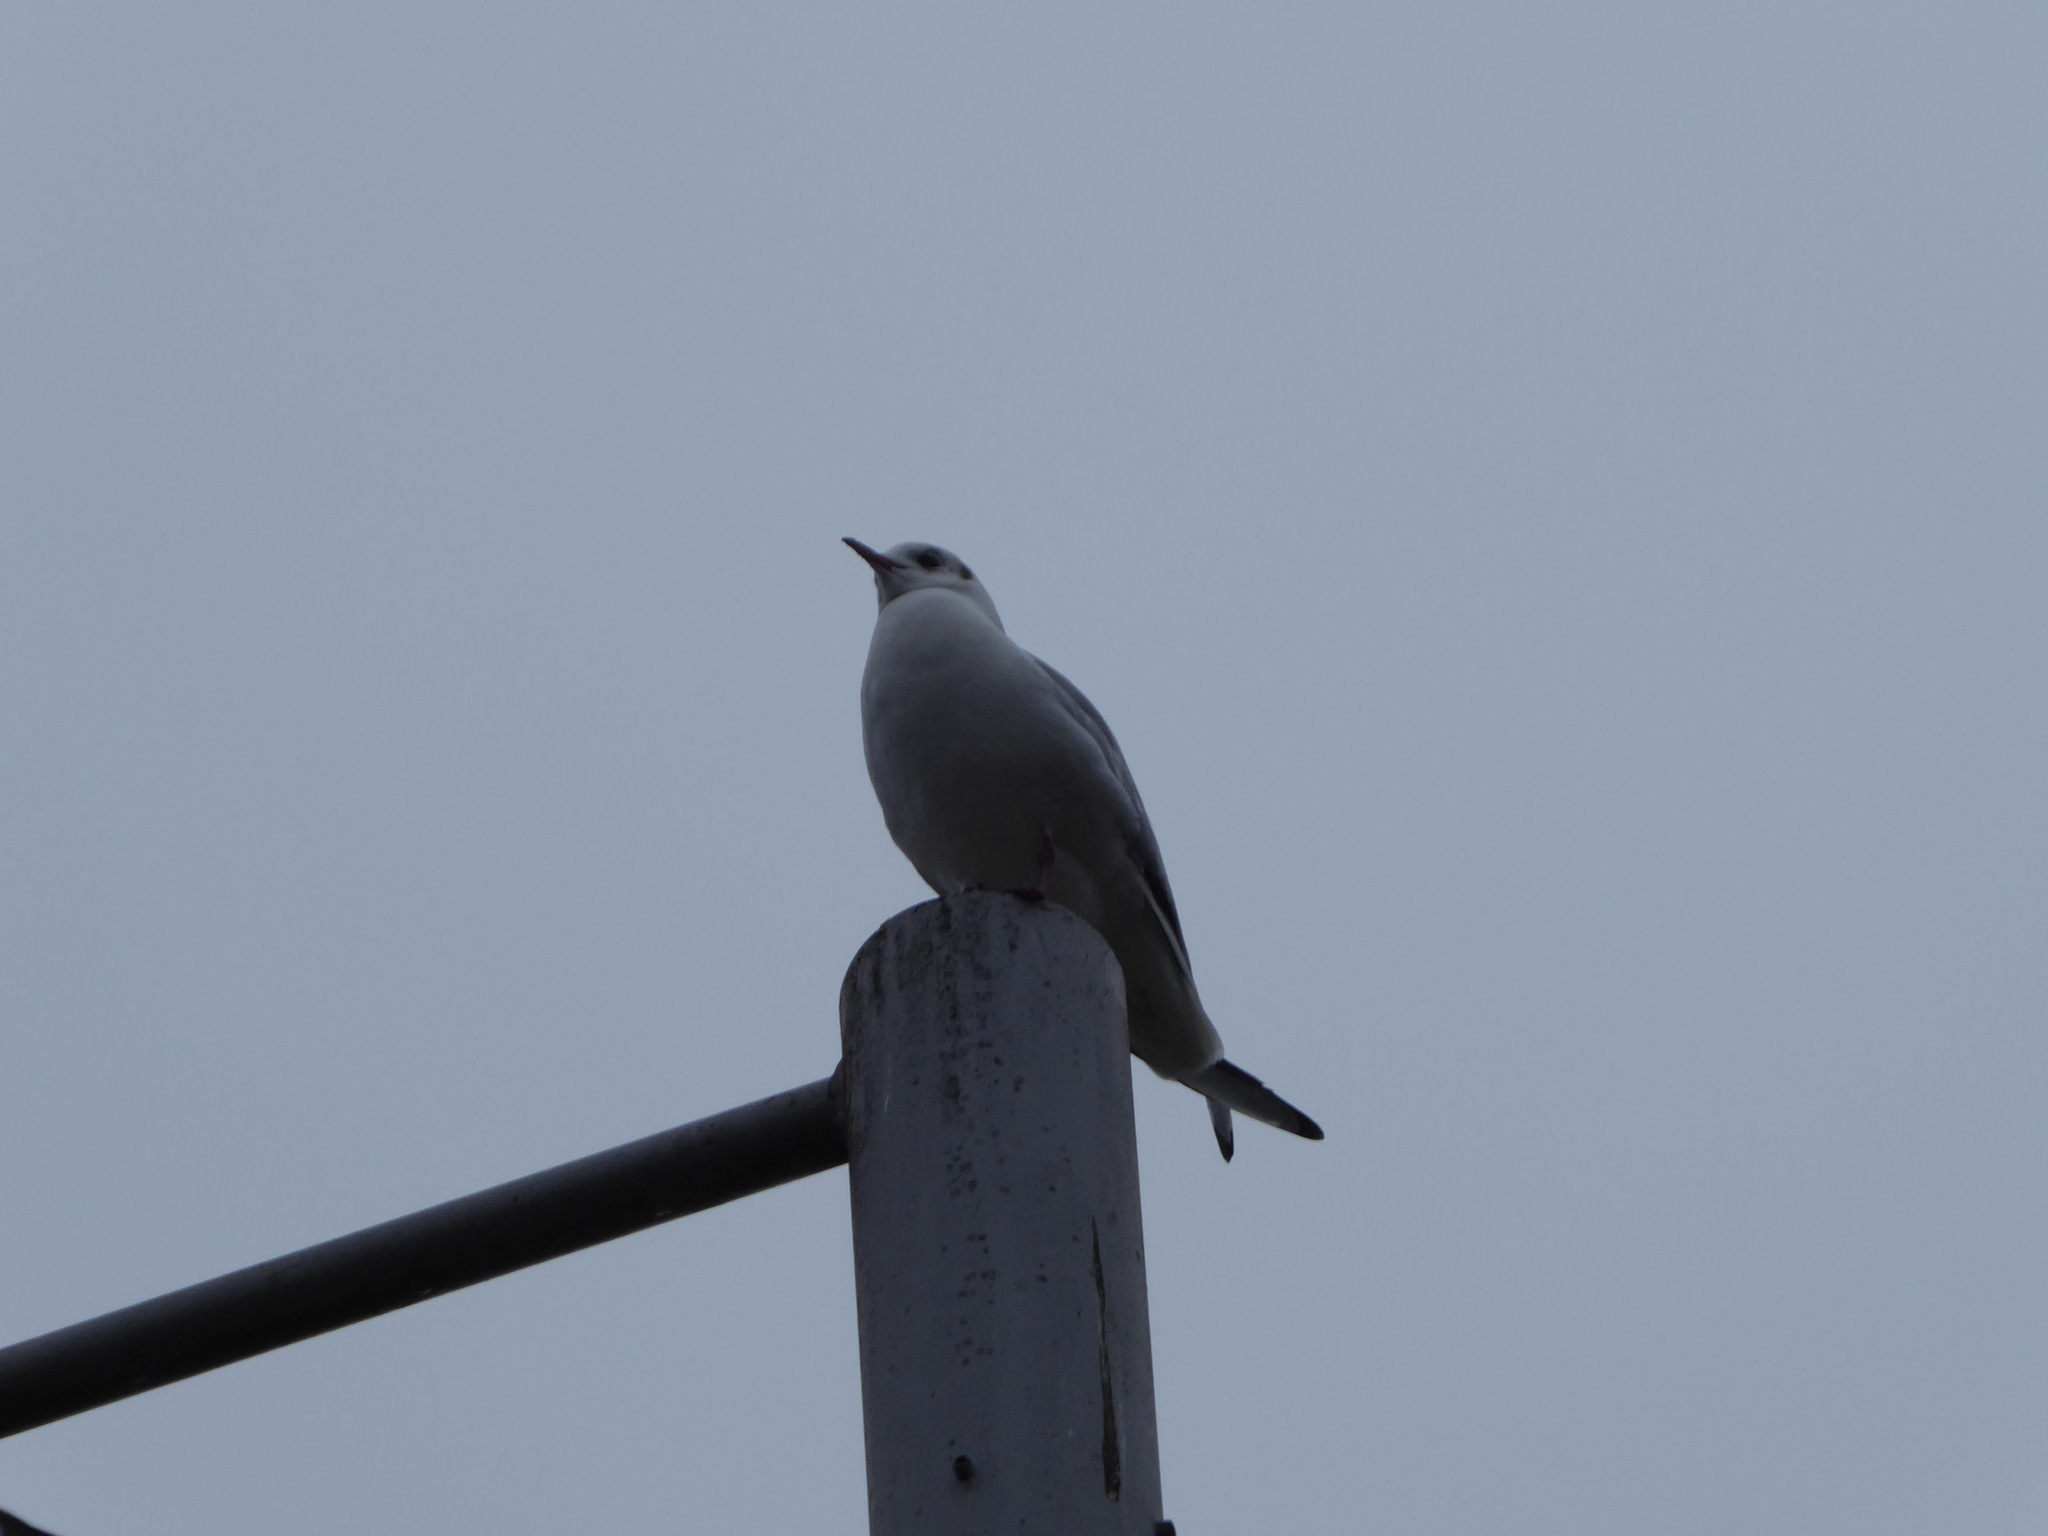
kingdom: Animalia
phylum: Chordata
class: Aves
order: Charadriiformes
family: Laridae
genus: Chroicocephalus
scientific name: Chroicocephalus ridibundus
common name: Black-headed gull
